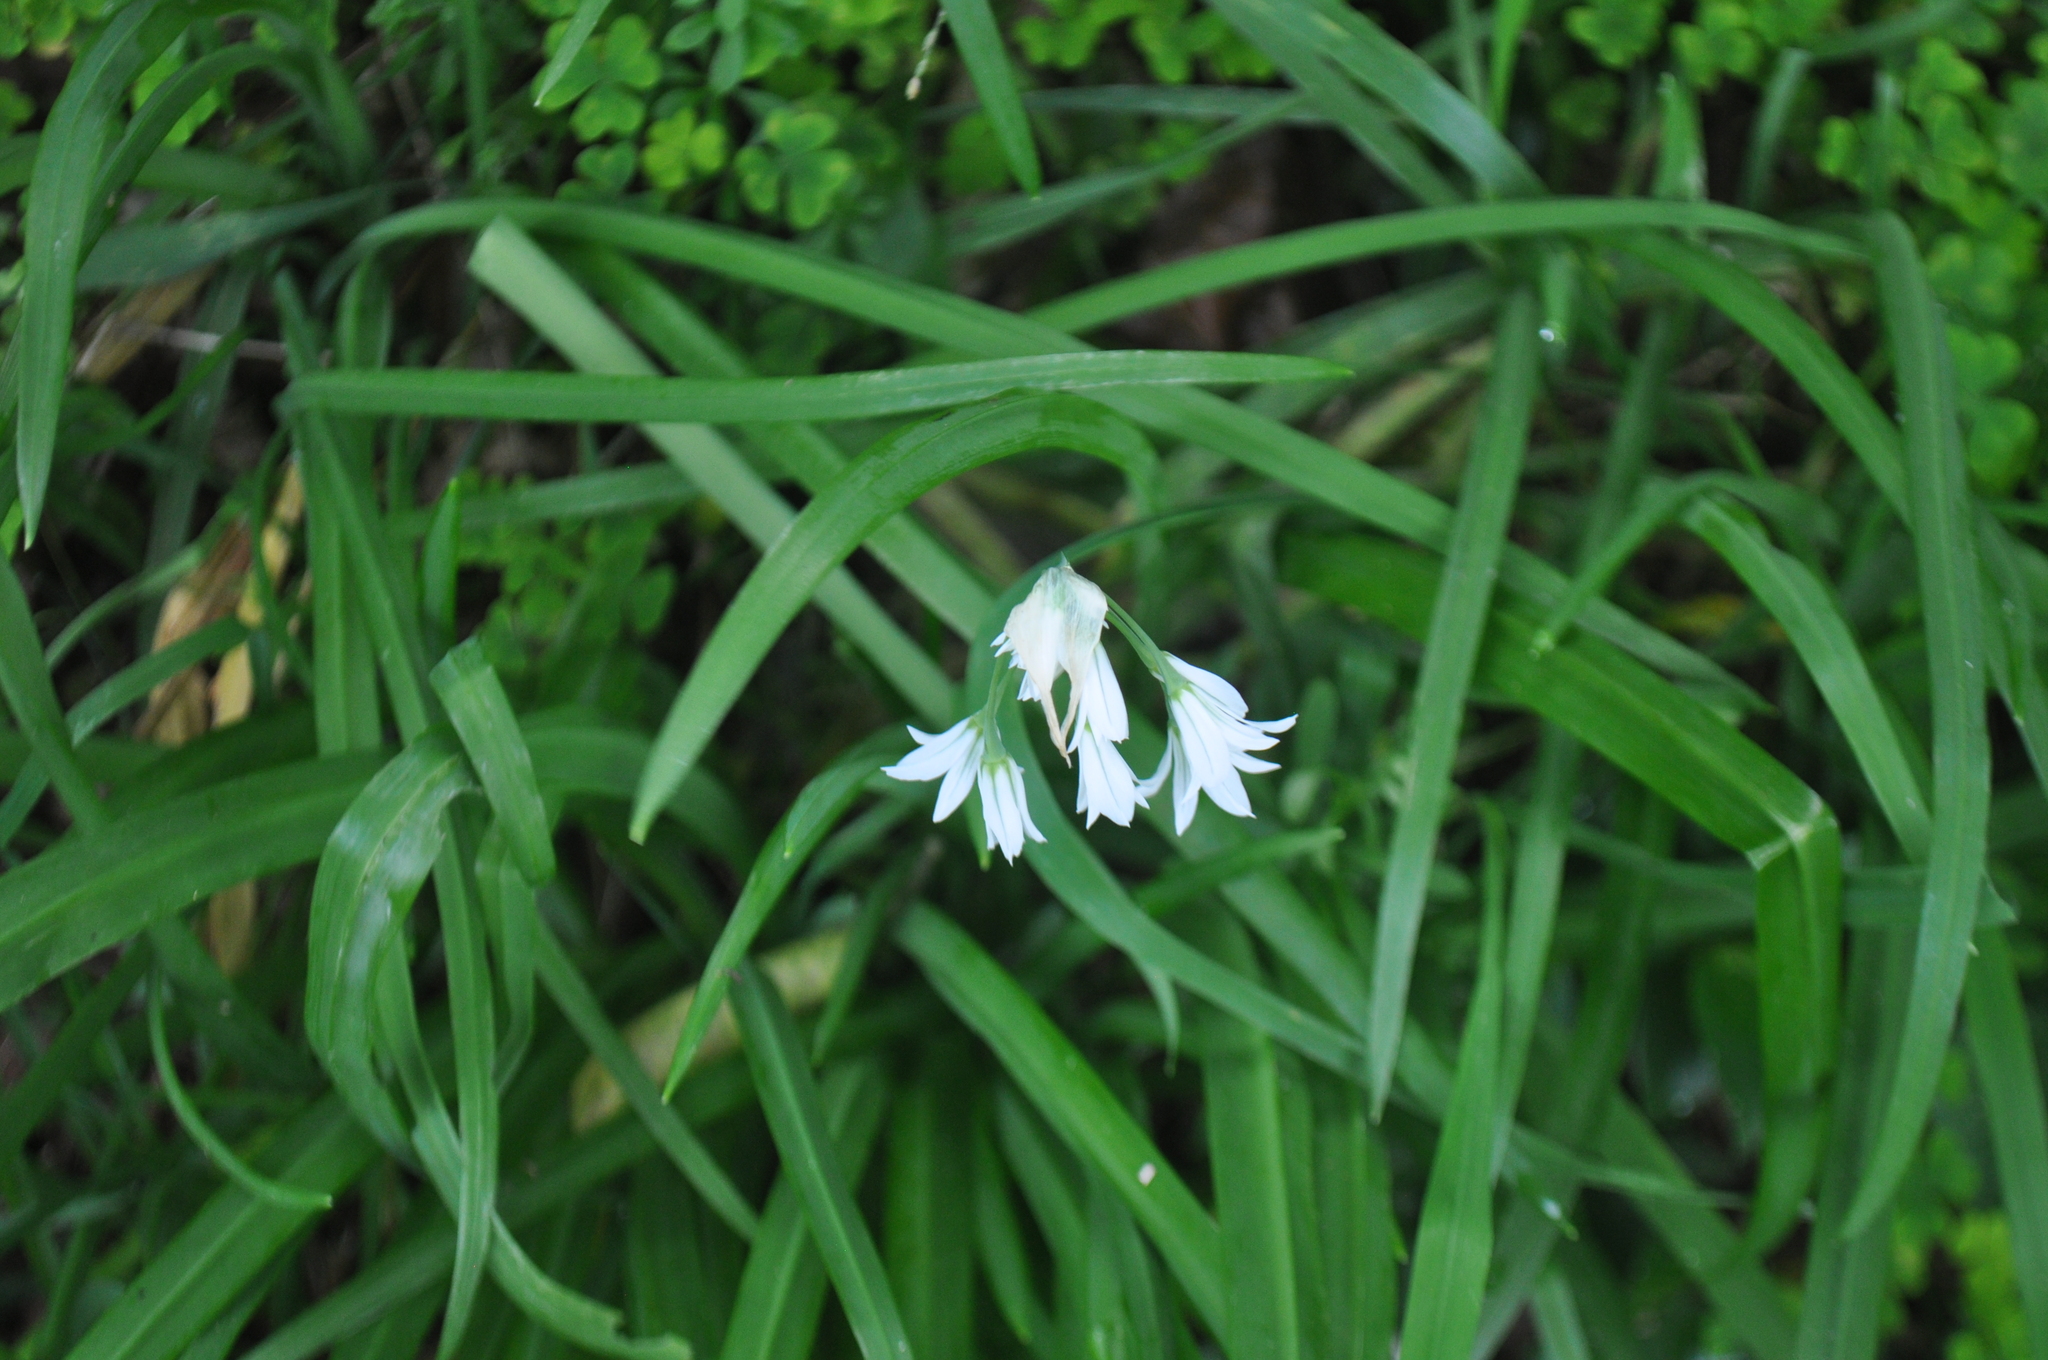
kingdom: Plantae
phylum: Tracheophyta
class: Liliopsida
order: Asparagales
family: Amaryllidaceae
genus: Allium
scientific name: Allium triquetrum
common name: Three-cornered garlic
